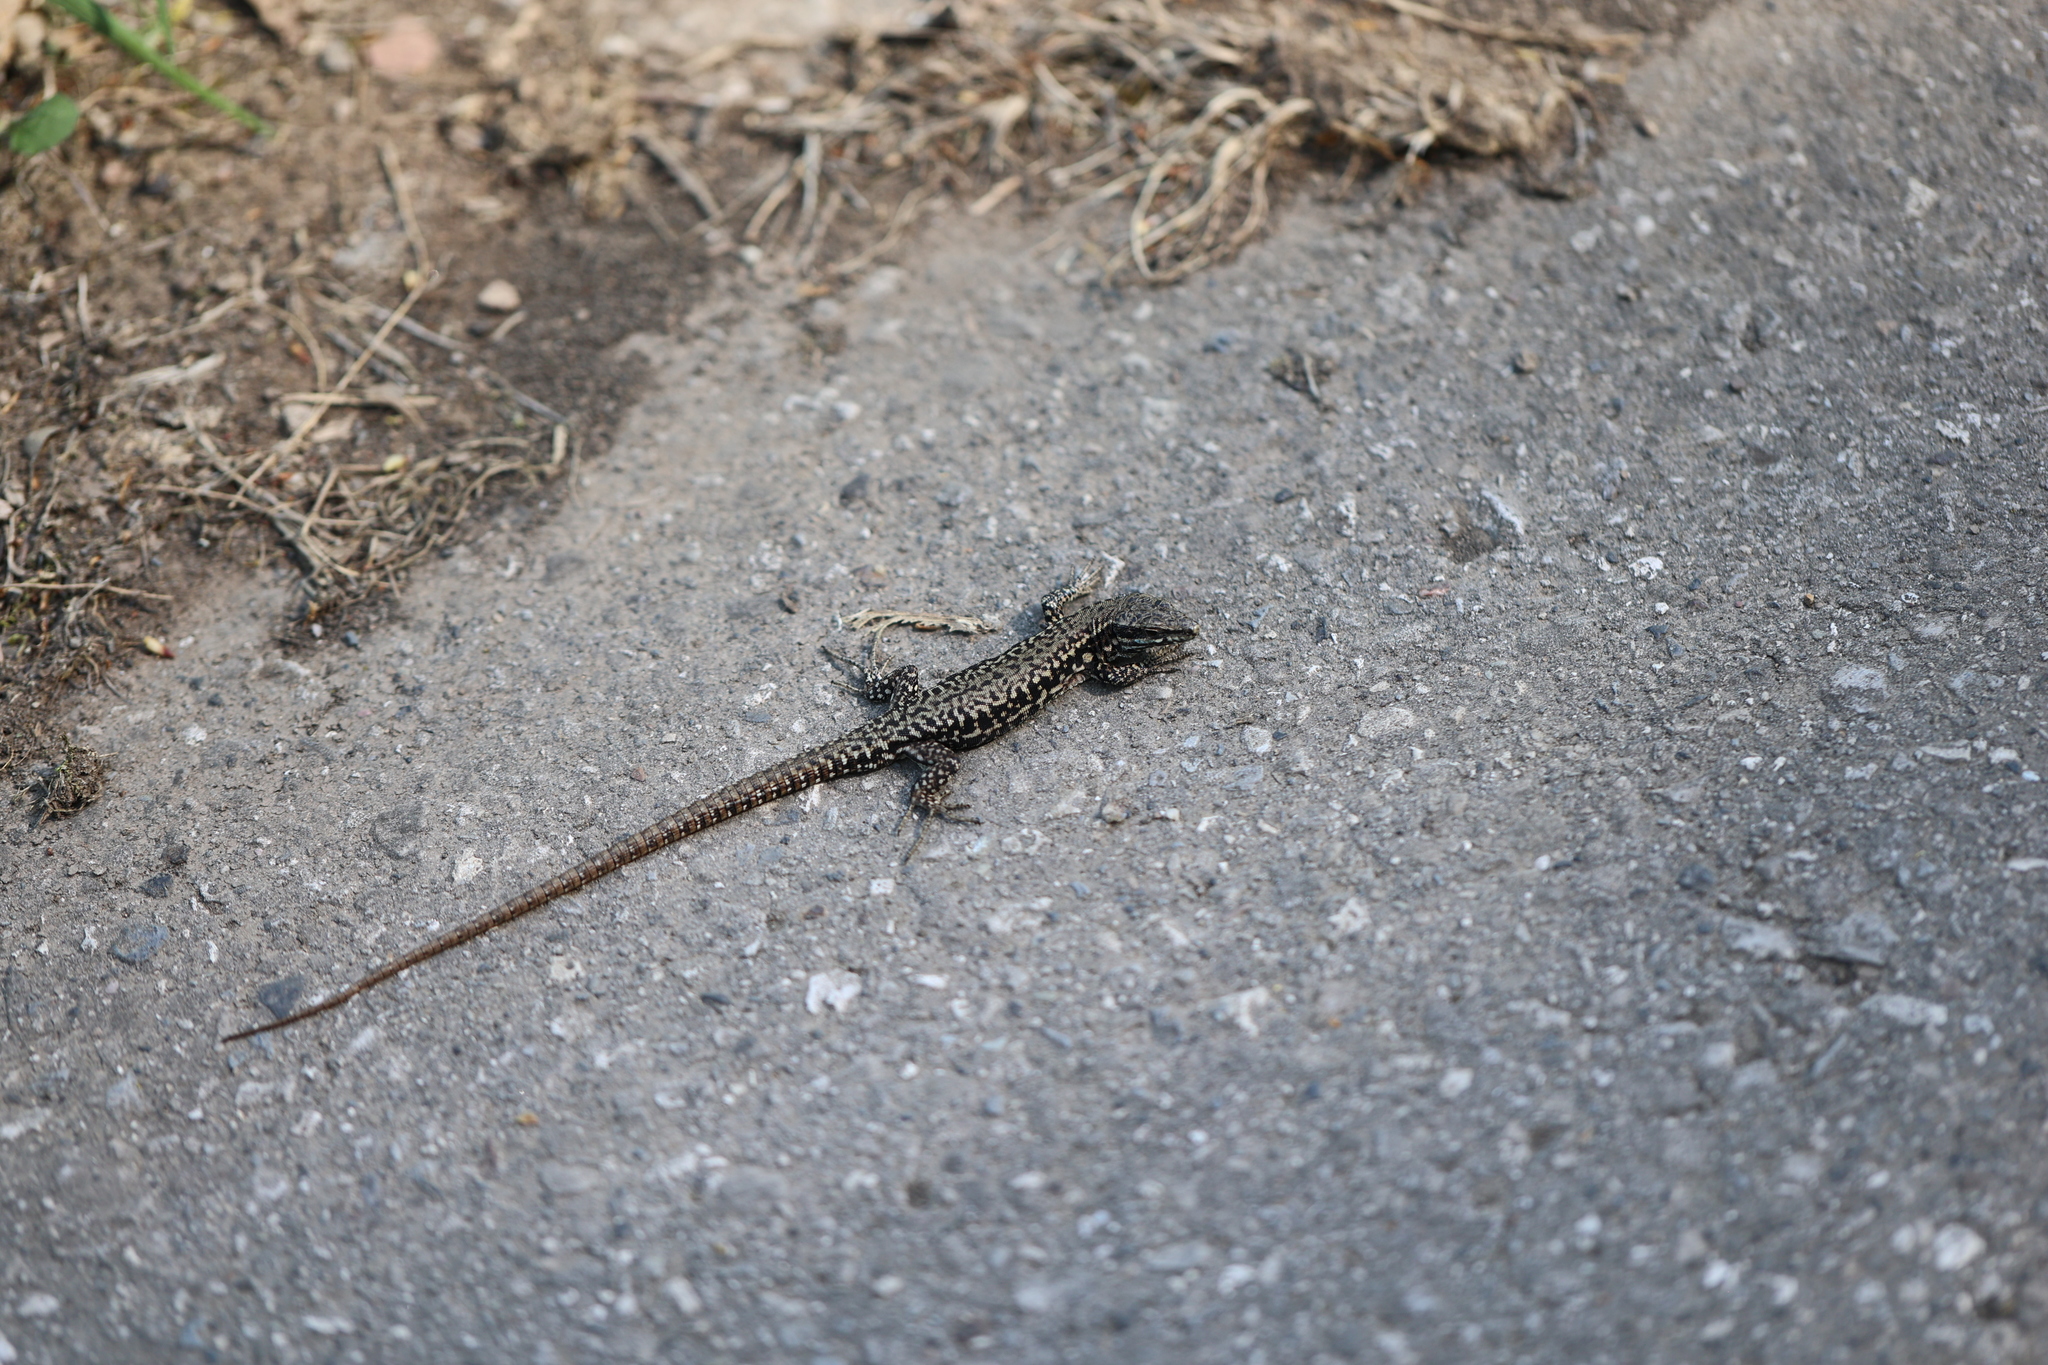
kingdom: Animalia
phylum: Chordata
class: Squamata
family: Lacertidae
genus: Podarcis
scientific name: Podarcis muralis
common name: Common wall lizard
